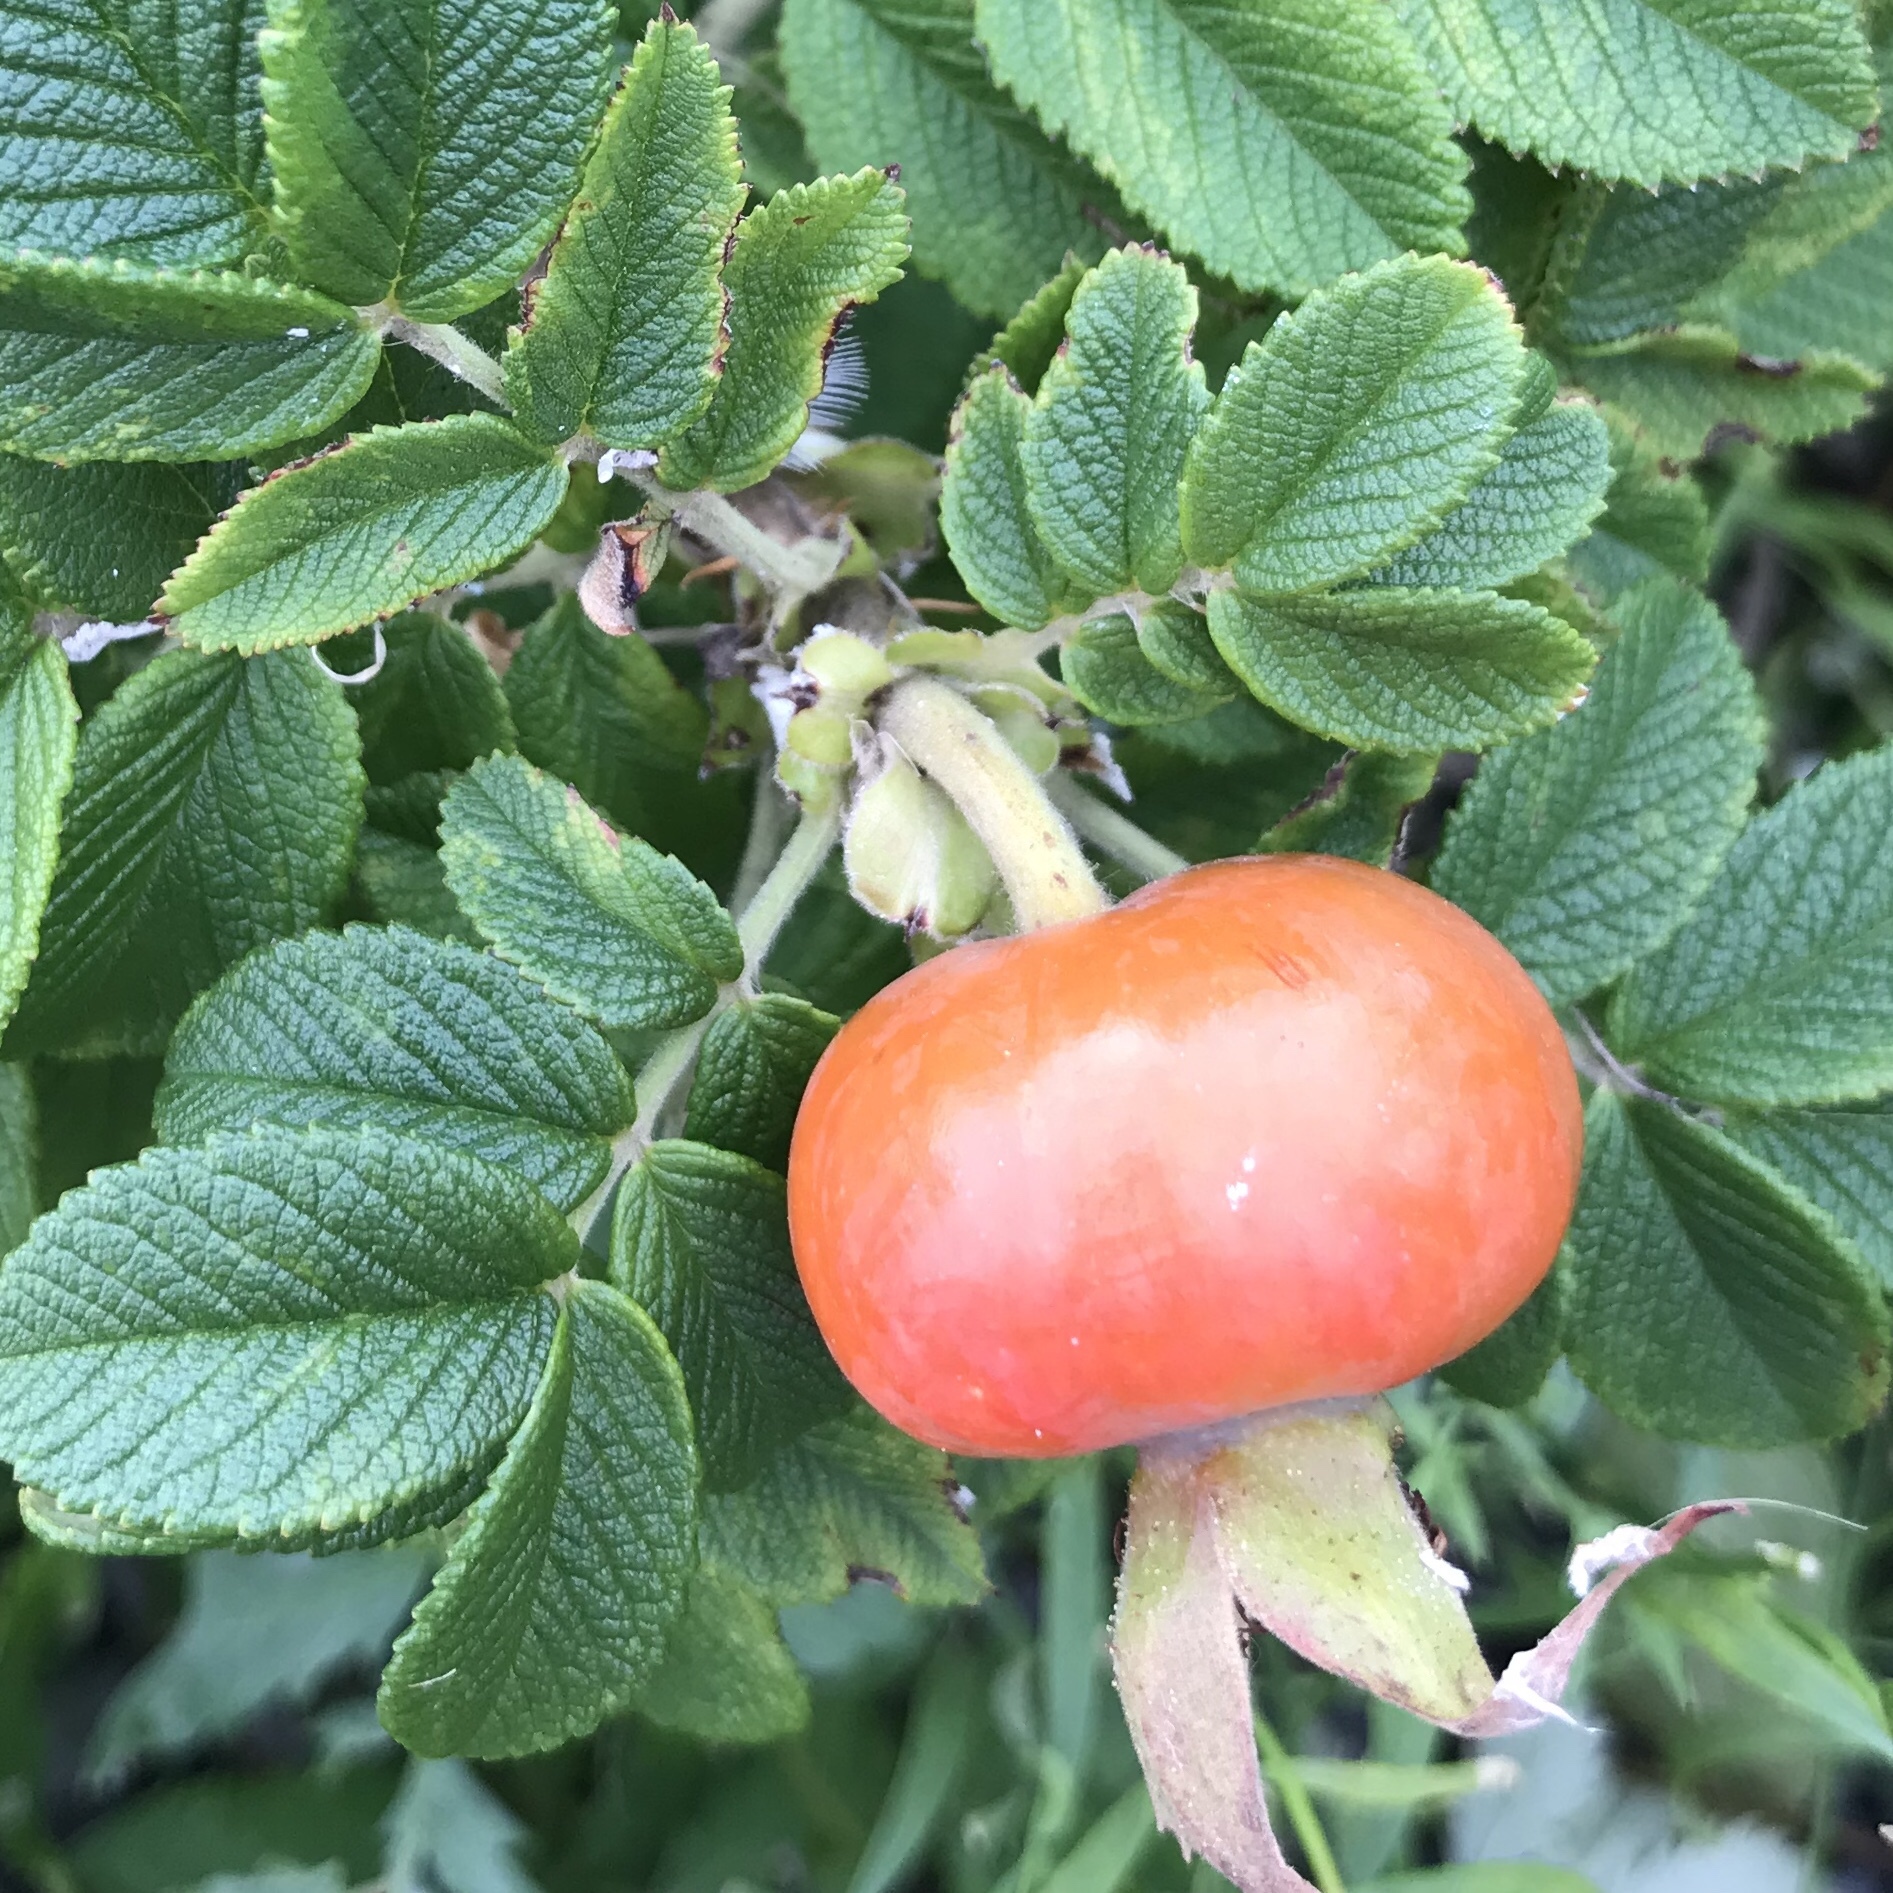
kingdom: Plantae
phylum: Tracheophyta
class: Magnoliopsida
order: Rosales
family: Rosaceae
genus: Rosa
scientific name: Rosa rugosa
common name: Japanese rose
